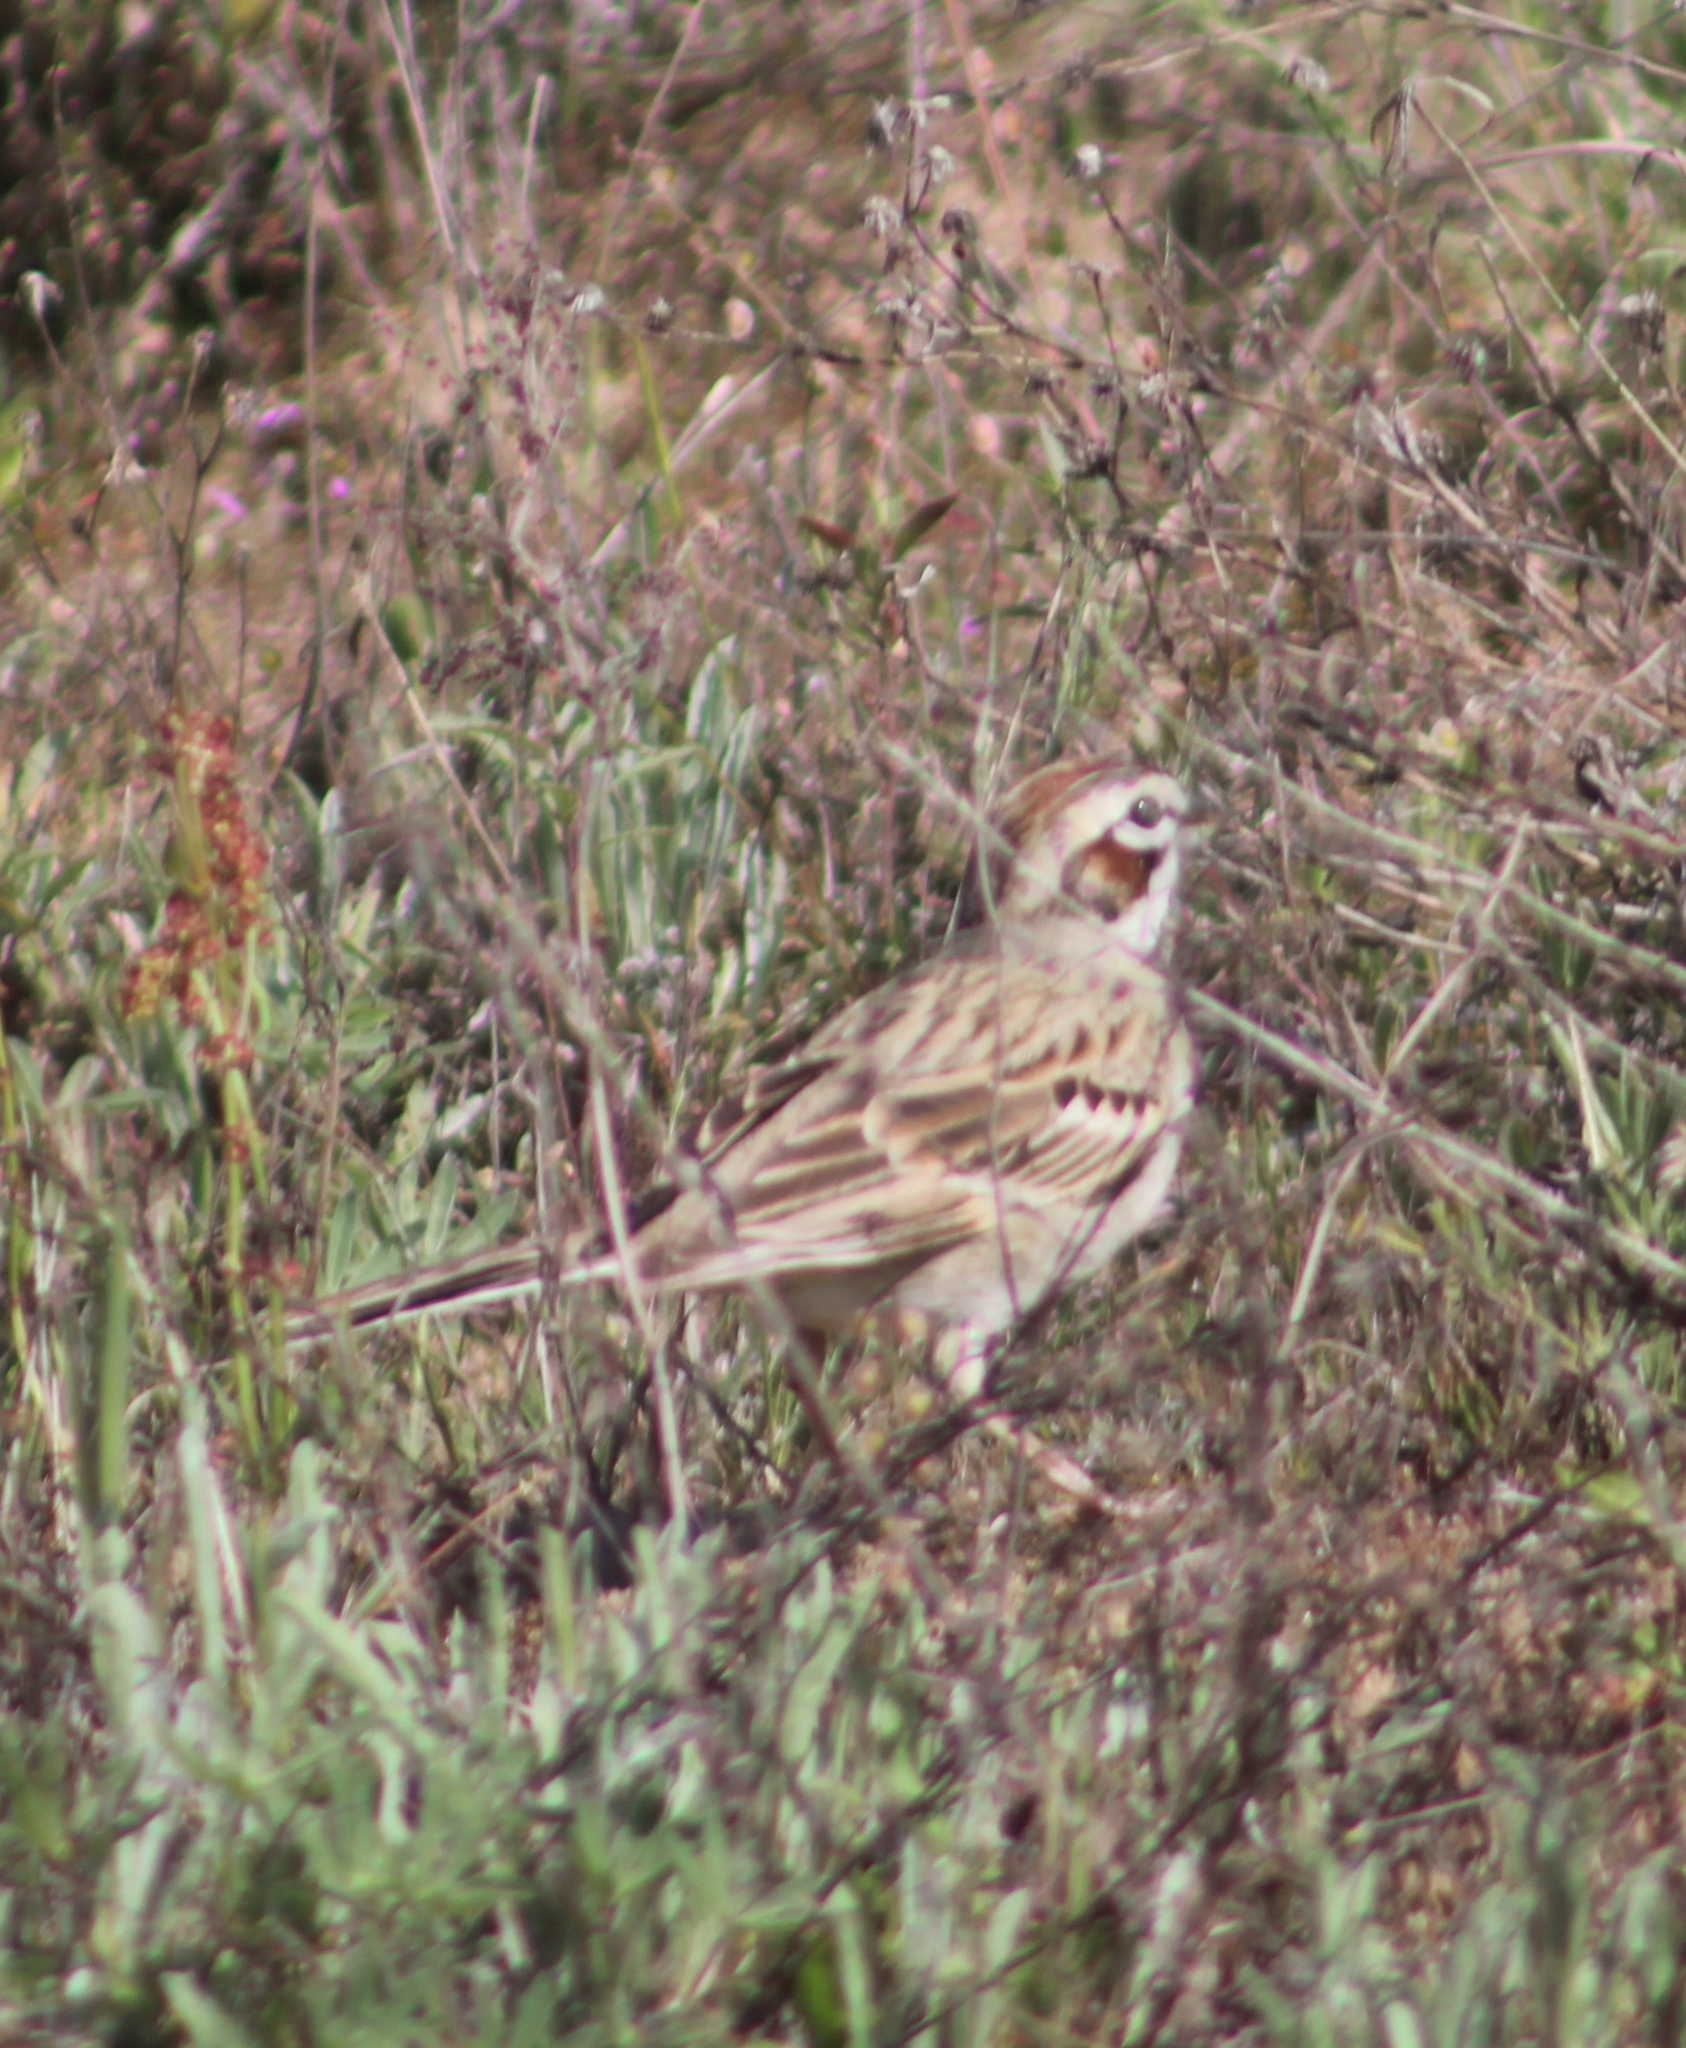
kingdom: Animalia
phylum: Chordata
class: Aves
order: Passeriformes
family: Passerellidae
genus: Chondestes
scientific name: Chondestes grammacus
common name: Lark sparrow
